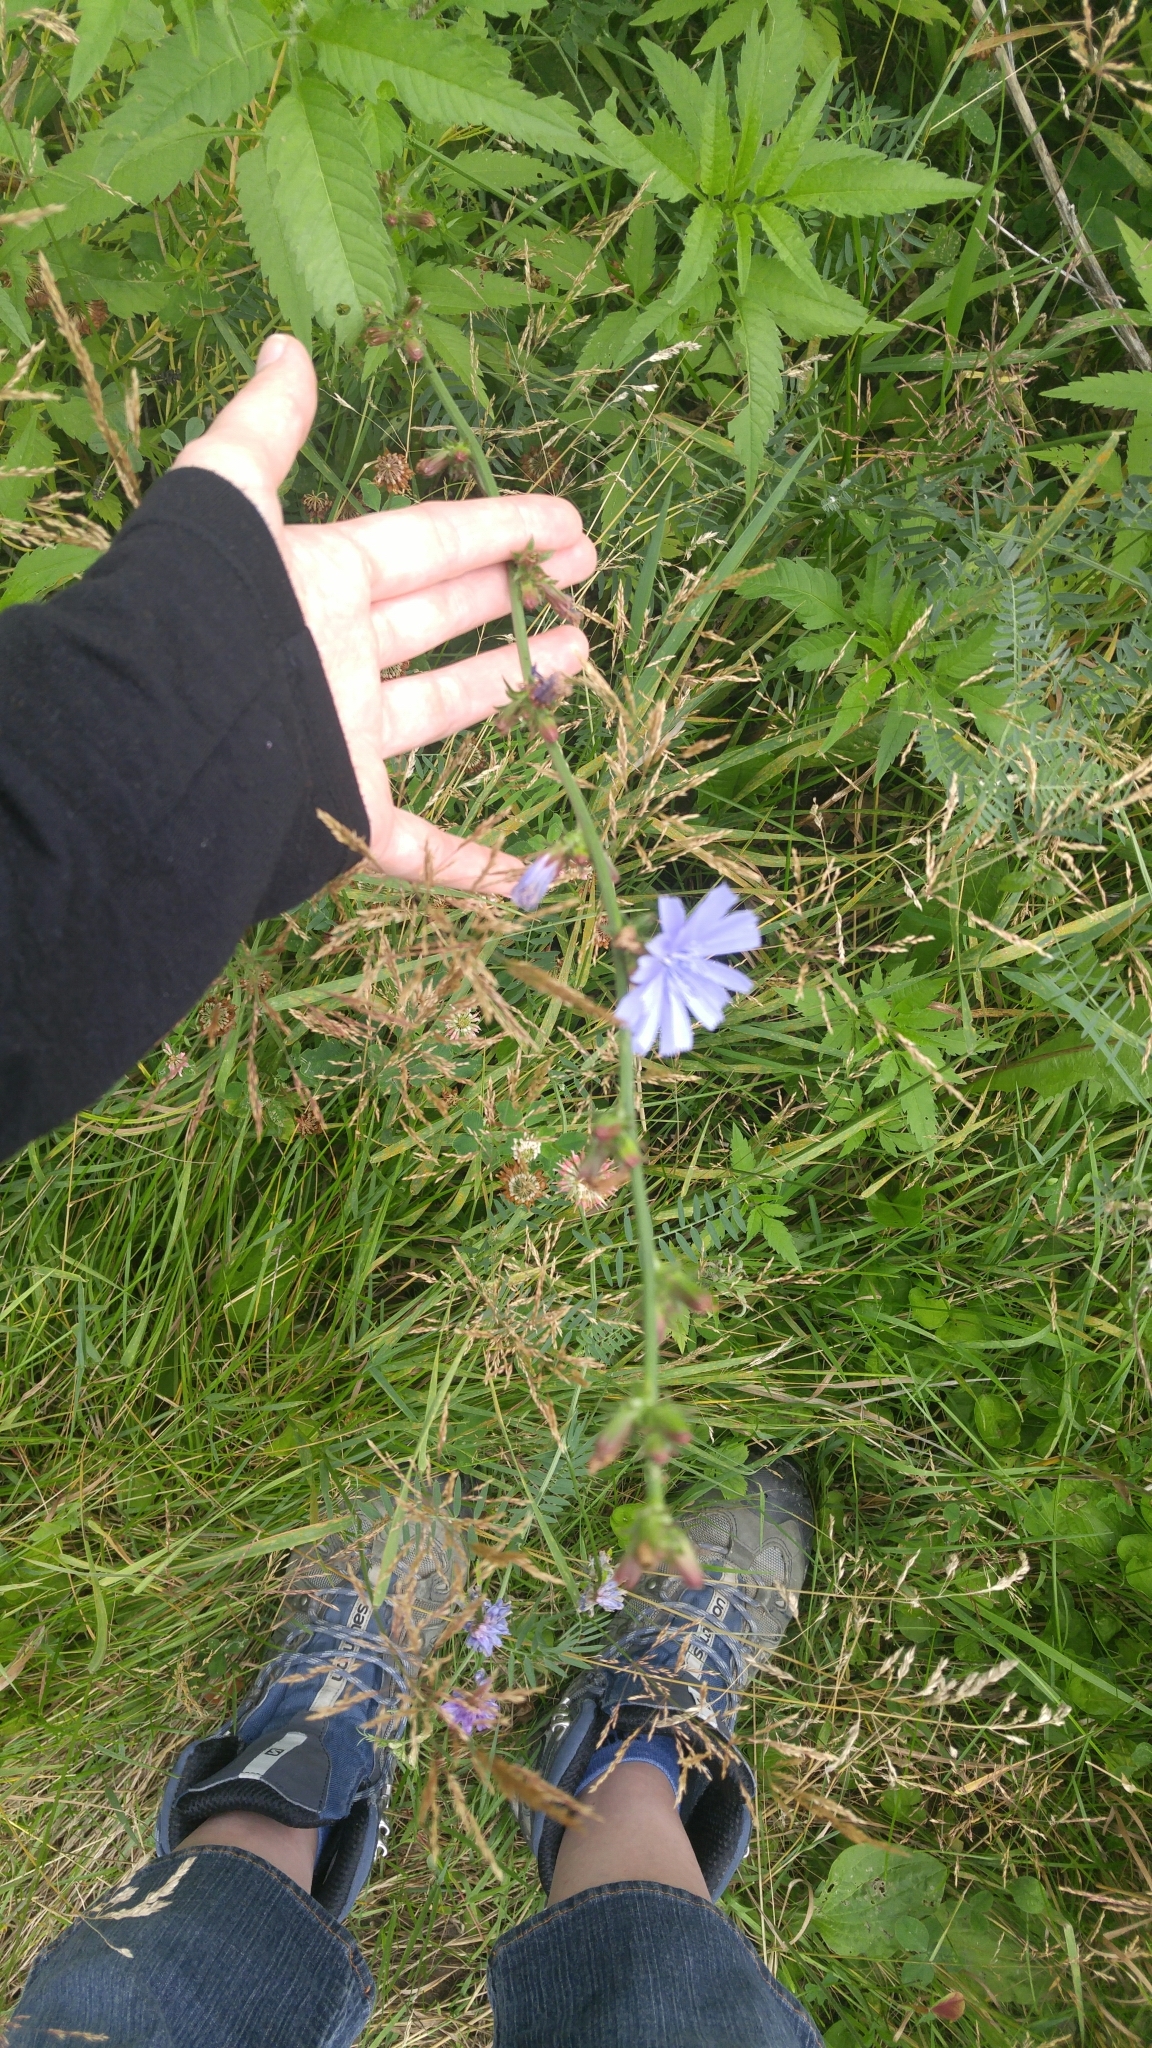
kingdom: Plantae
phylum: Tracheophyta
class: Magnoliopsida
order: Asterales
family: Asteraceae
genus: Cichorium
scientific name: Cichorium intybus
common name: Chicory
